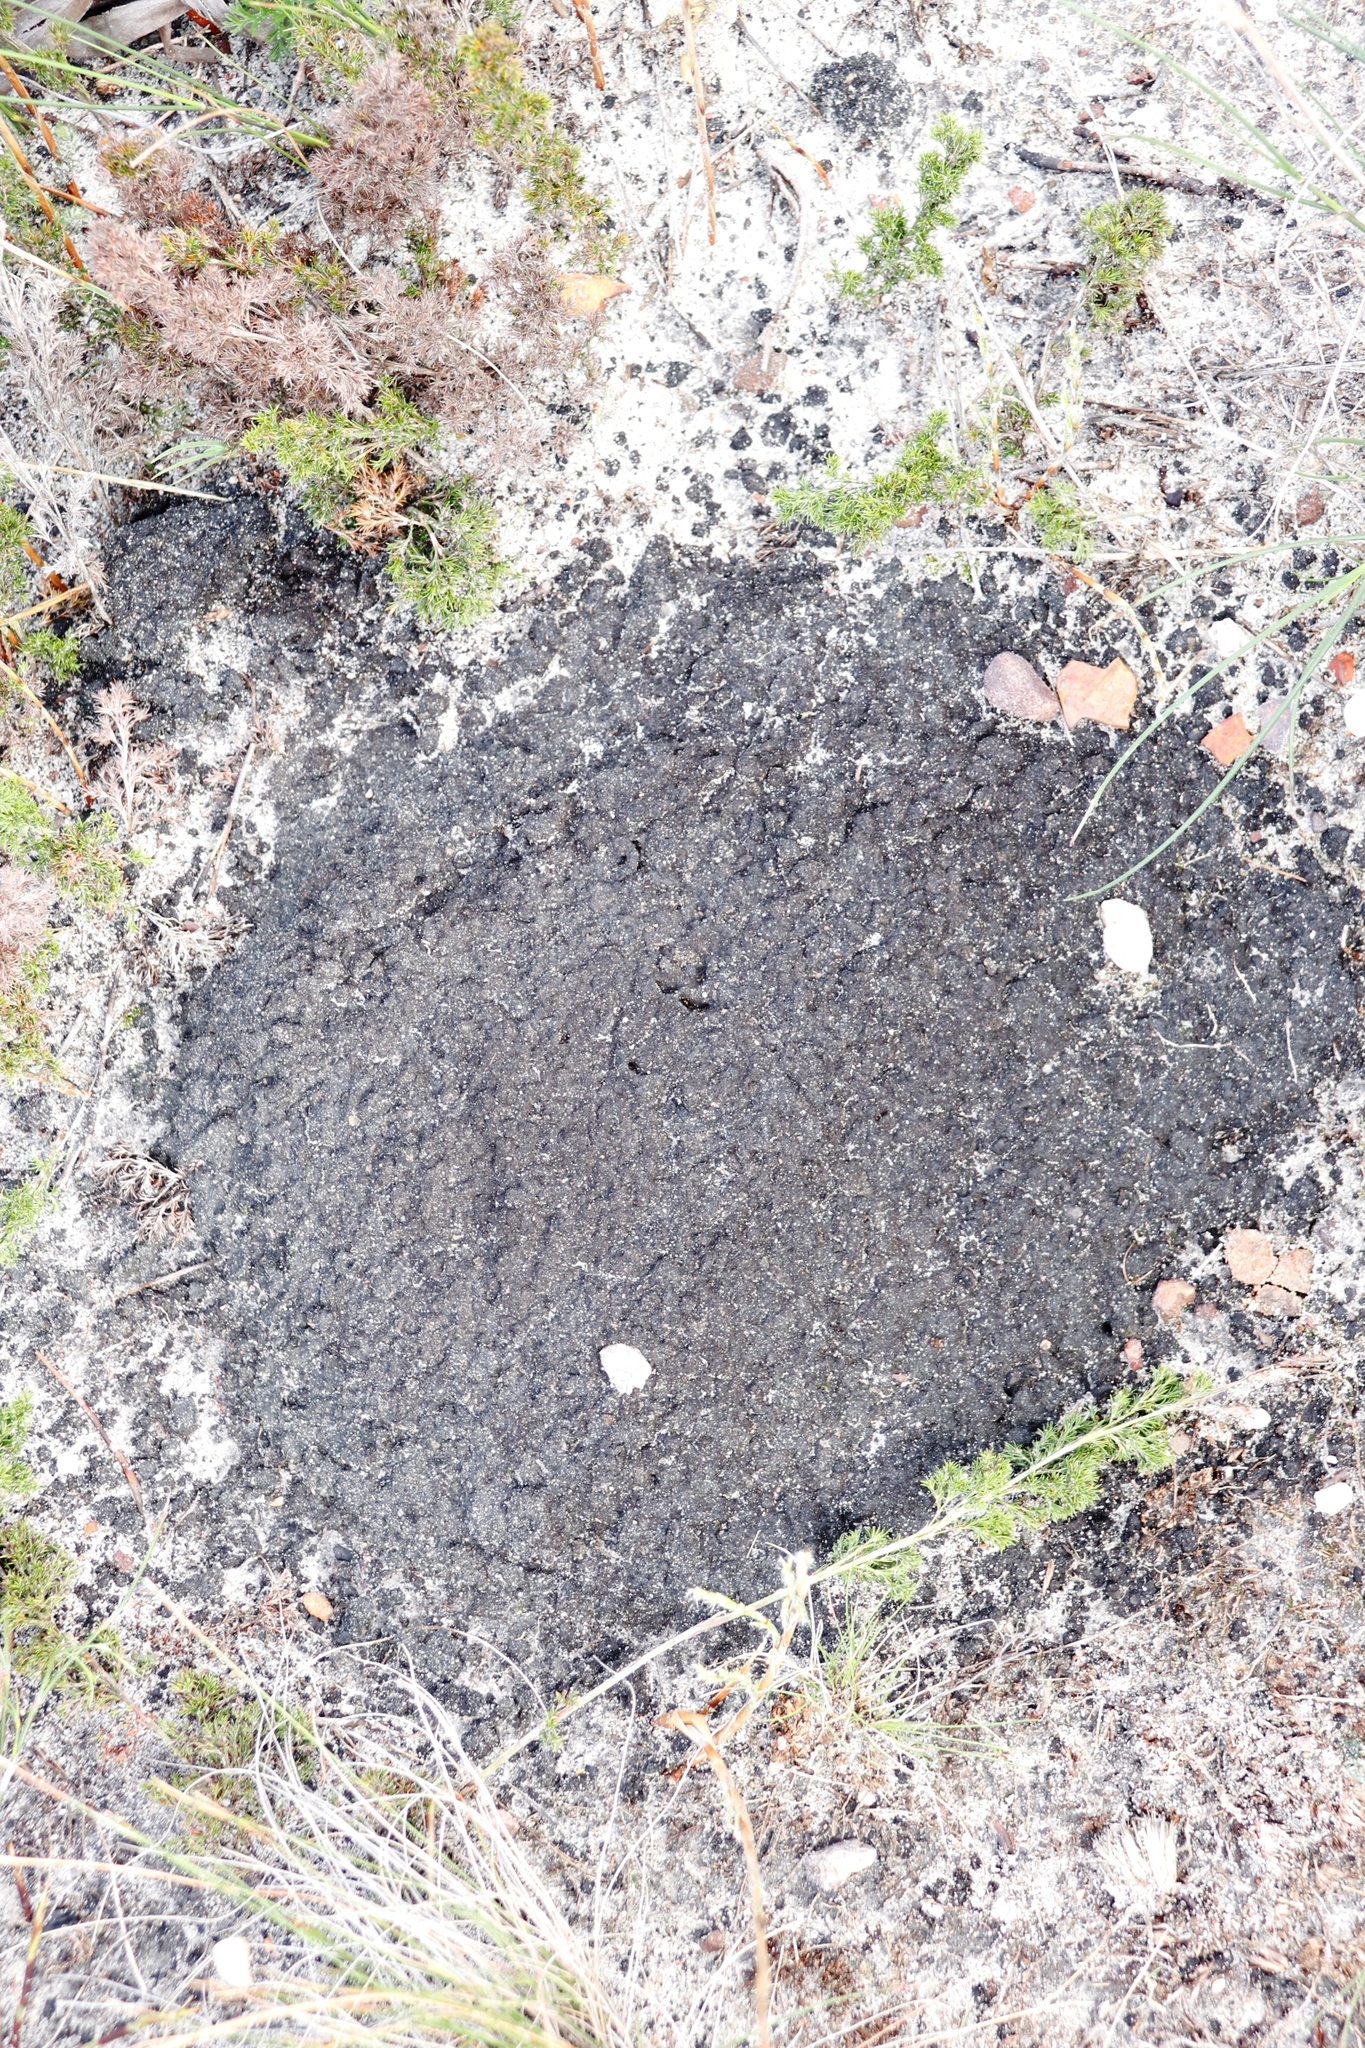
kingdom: Animalia
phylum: Arthropoda
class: Insecta
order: Blattodea
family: Termitidae
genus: Amitermes
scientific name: Amitermes hastatus
